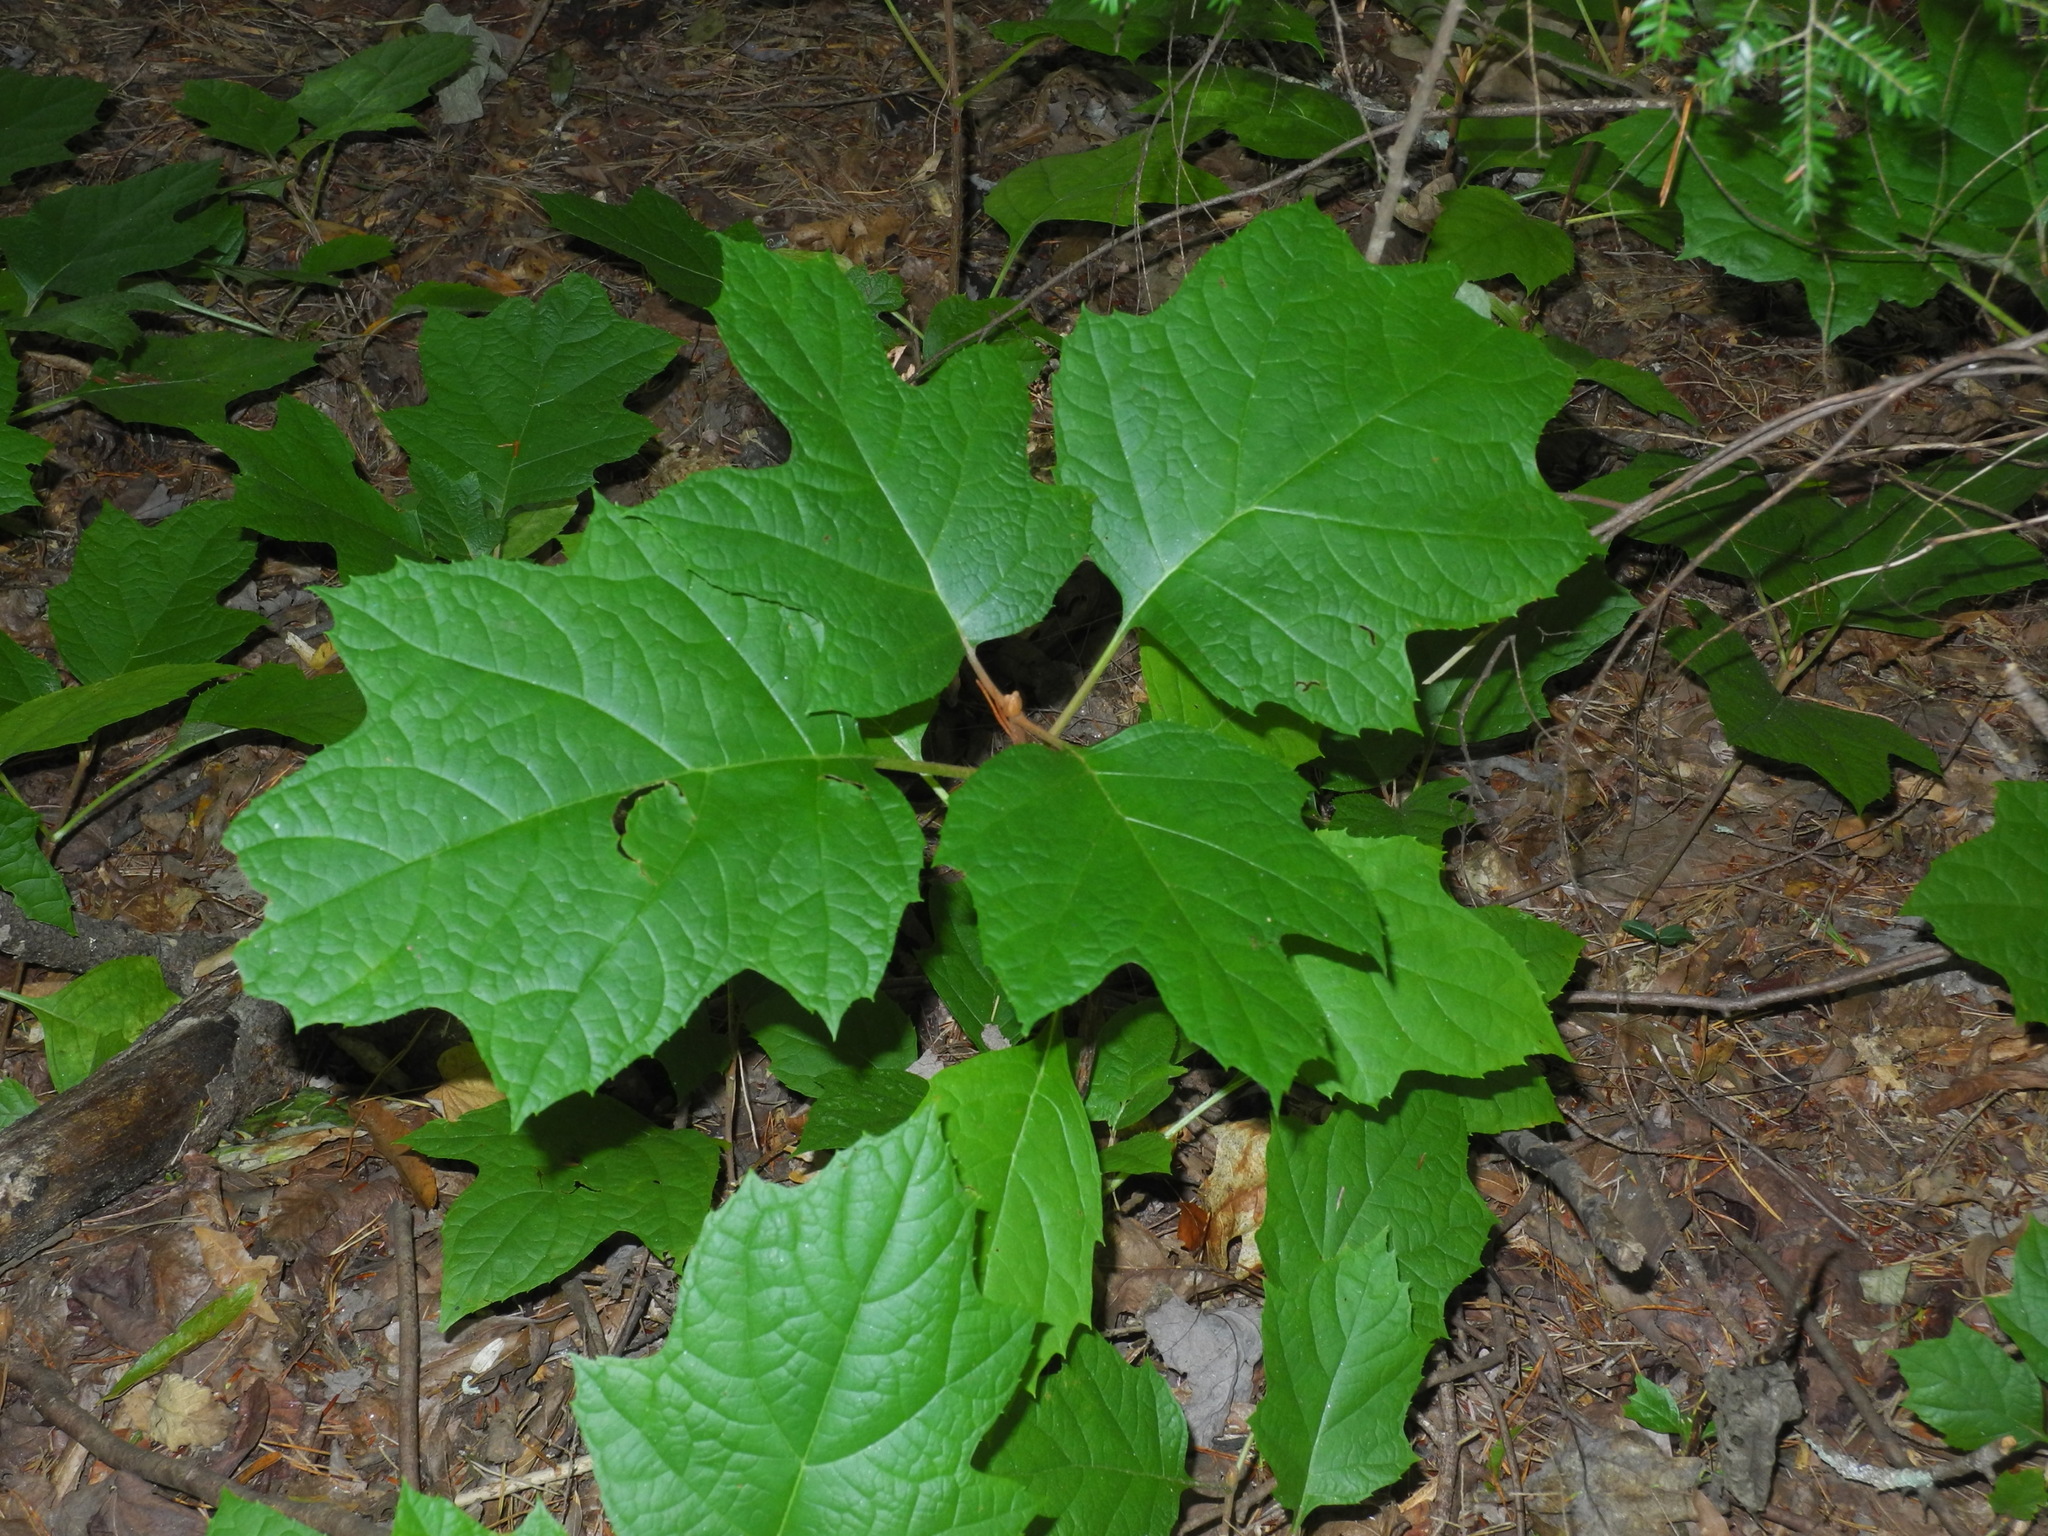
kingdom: Plantae
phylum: Tracheophyta
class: Magnoliopsida
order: Cornales
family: Hydrangeaceae
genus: Hydrangea
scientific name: Hydrangea quercifolia
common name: Oak-leaf hydrangea
